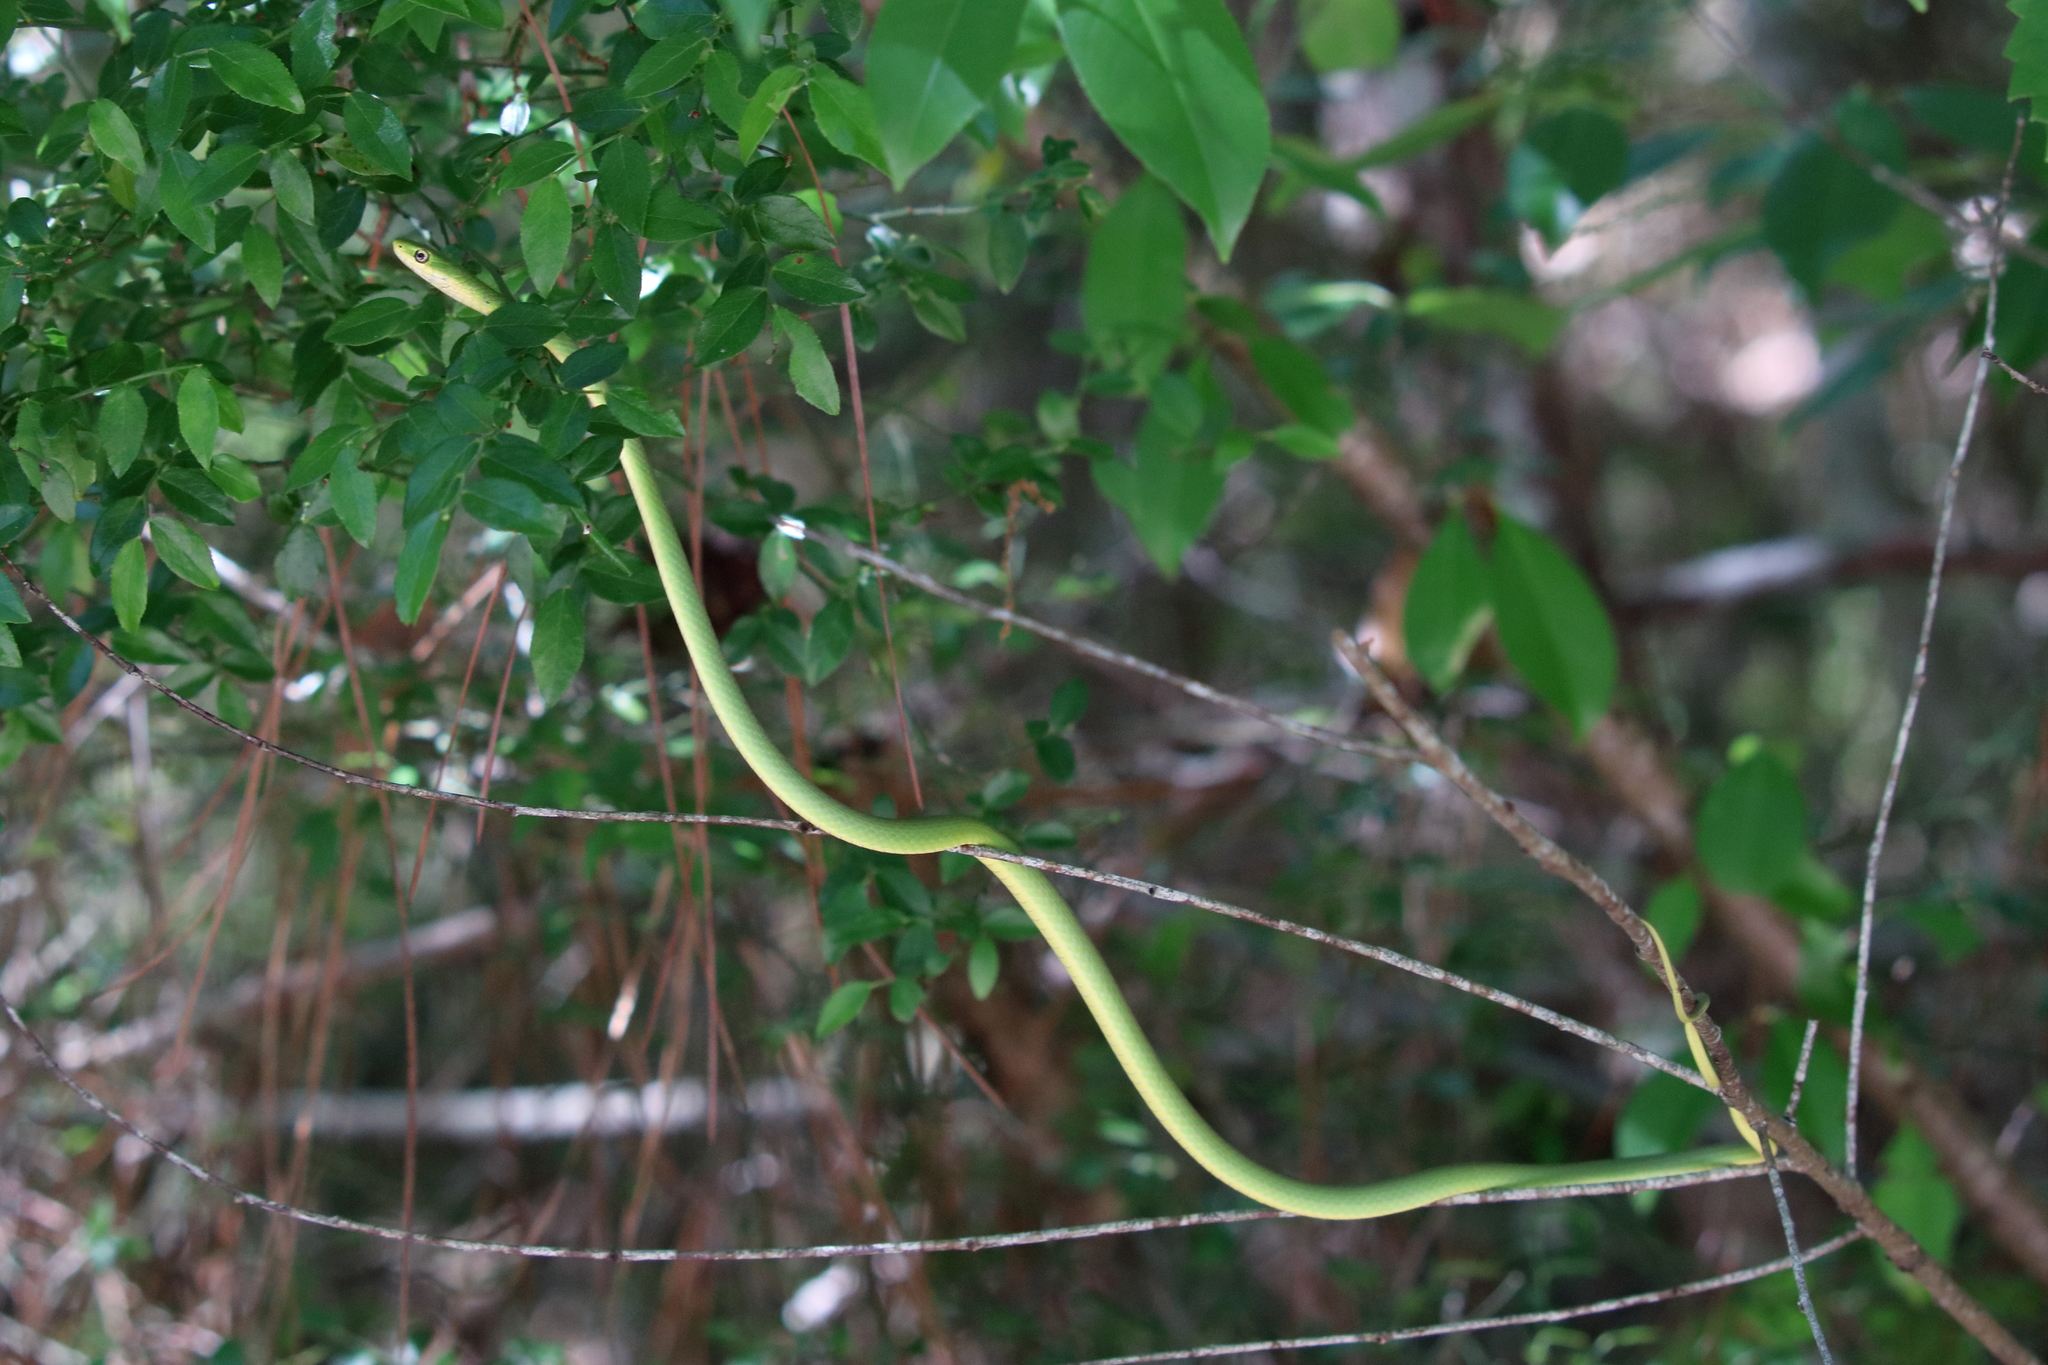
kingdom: Animalia
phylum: Chordata
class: Squamata
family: Colubridae
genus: Opheodrys
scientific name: Opheodrys aestivus
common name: Rough greensnake
